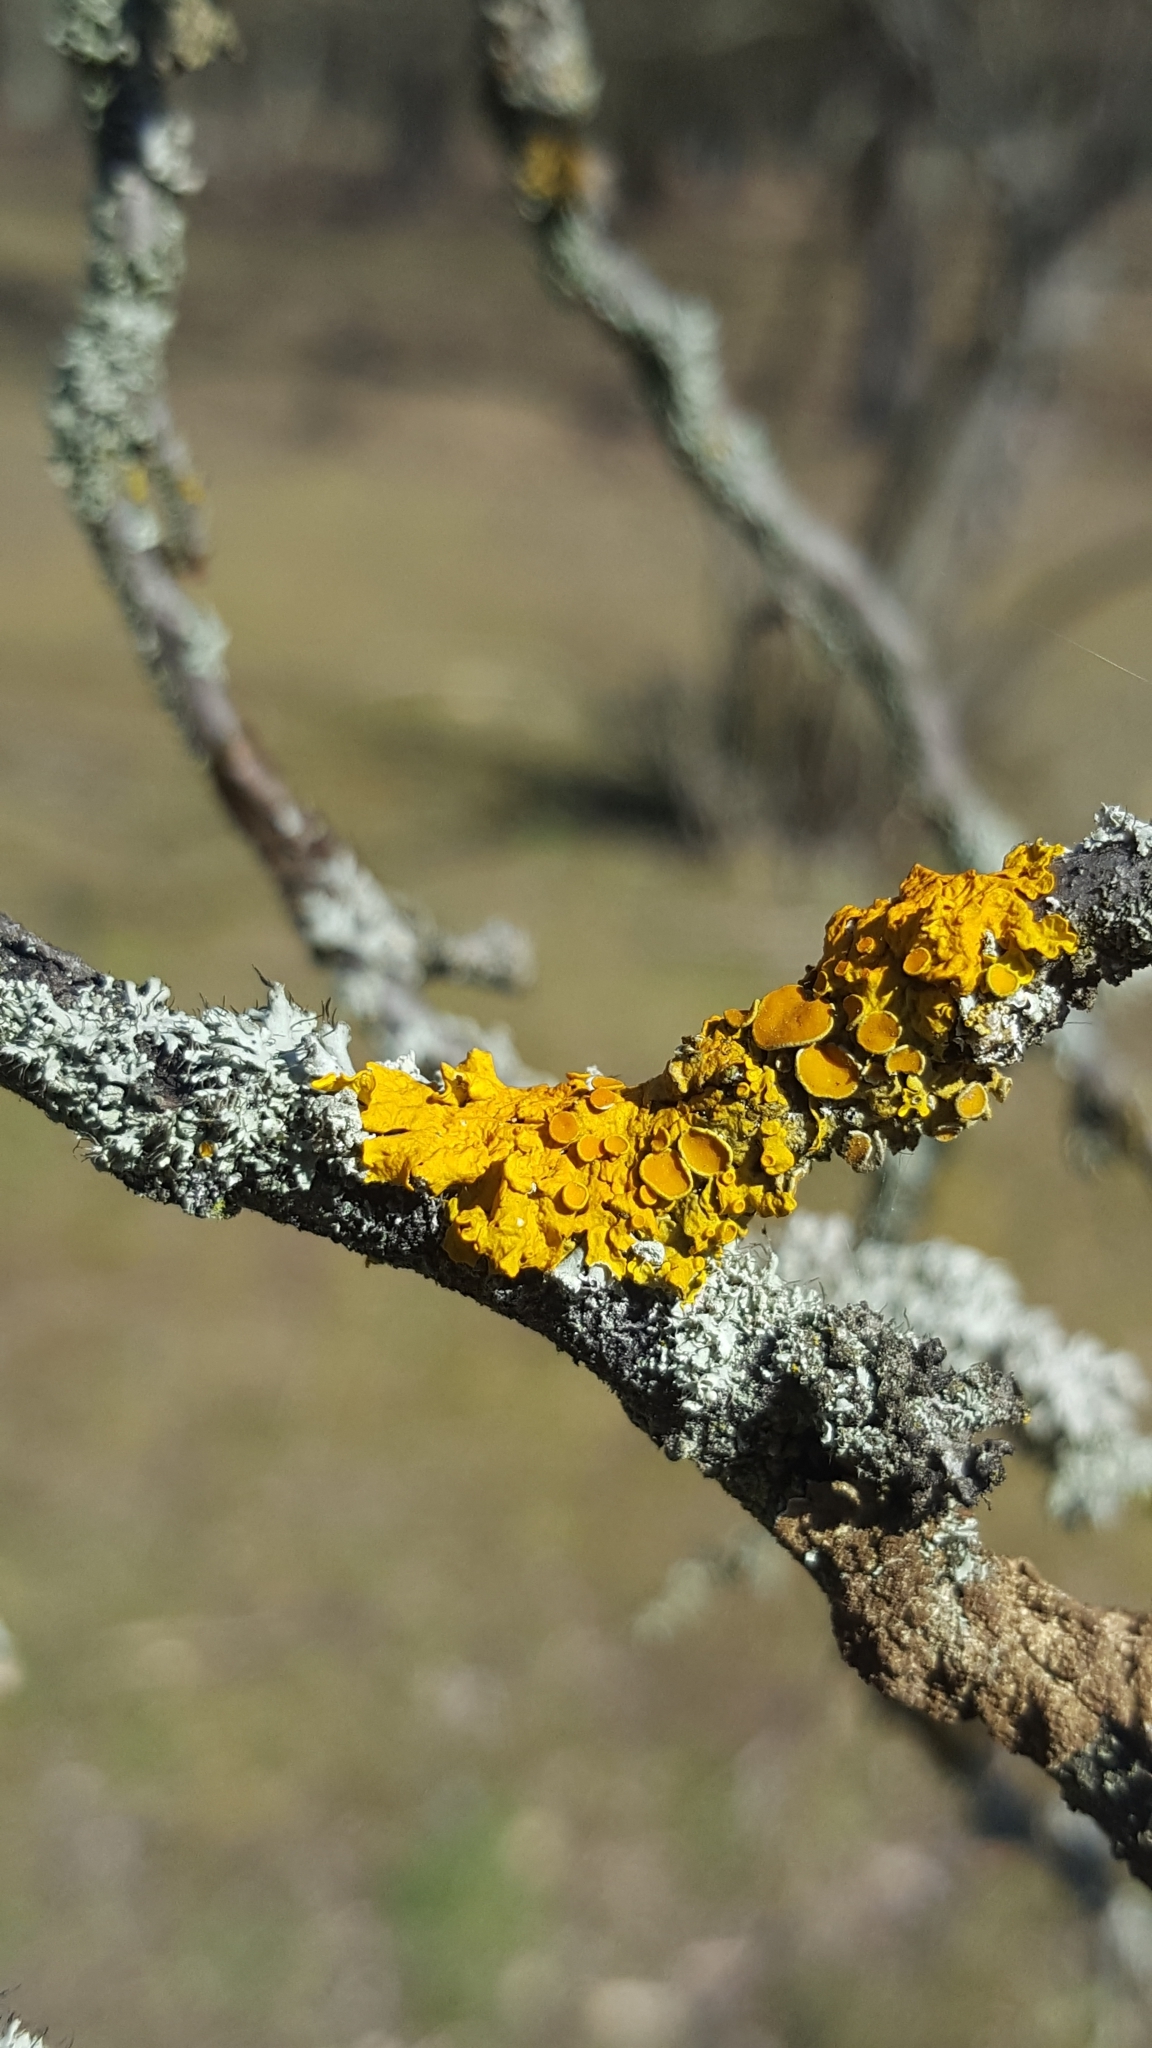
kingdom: Fungi
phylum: Ascomycota
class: Lecanoromycetes
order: Teloschistales
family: Teloschistaceae
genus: Xanthoria
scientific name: Xanthoria parietina
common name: Common orange lichen
